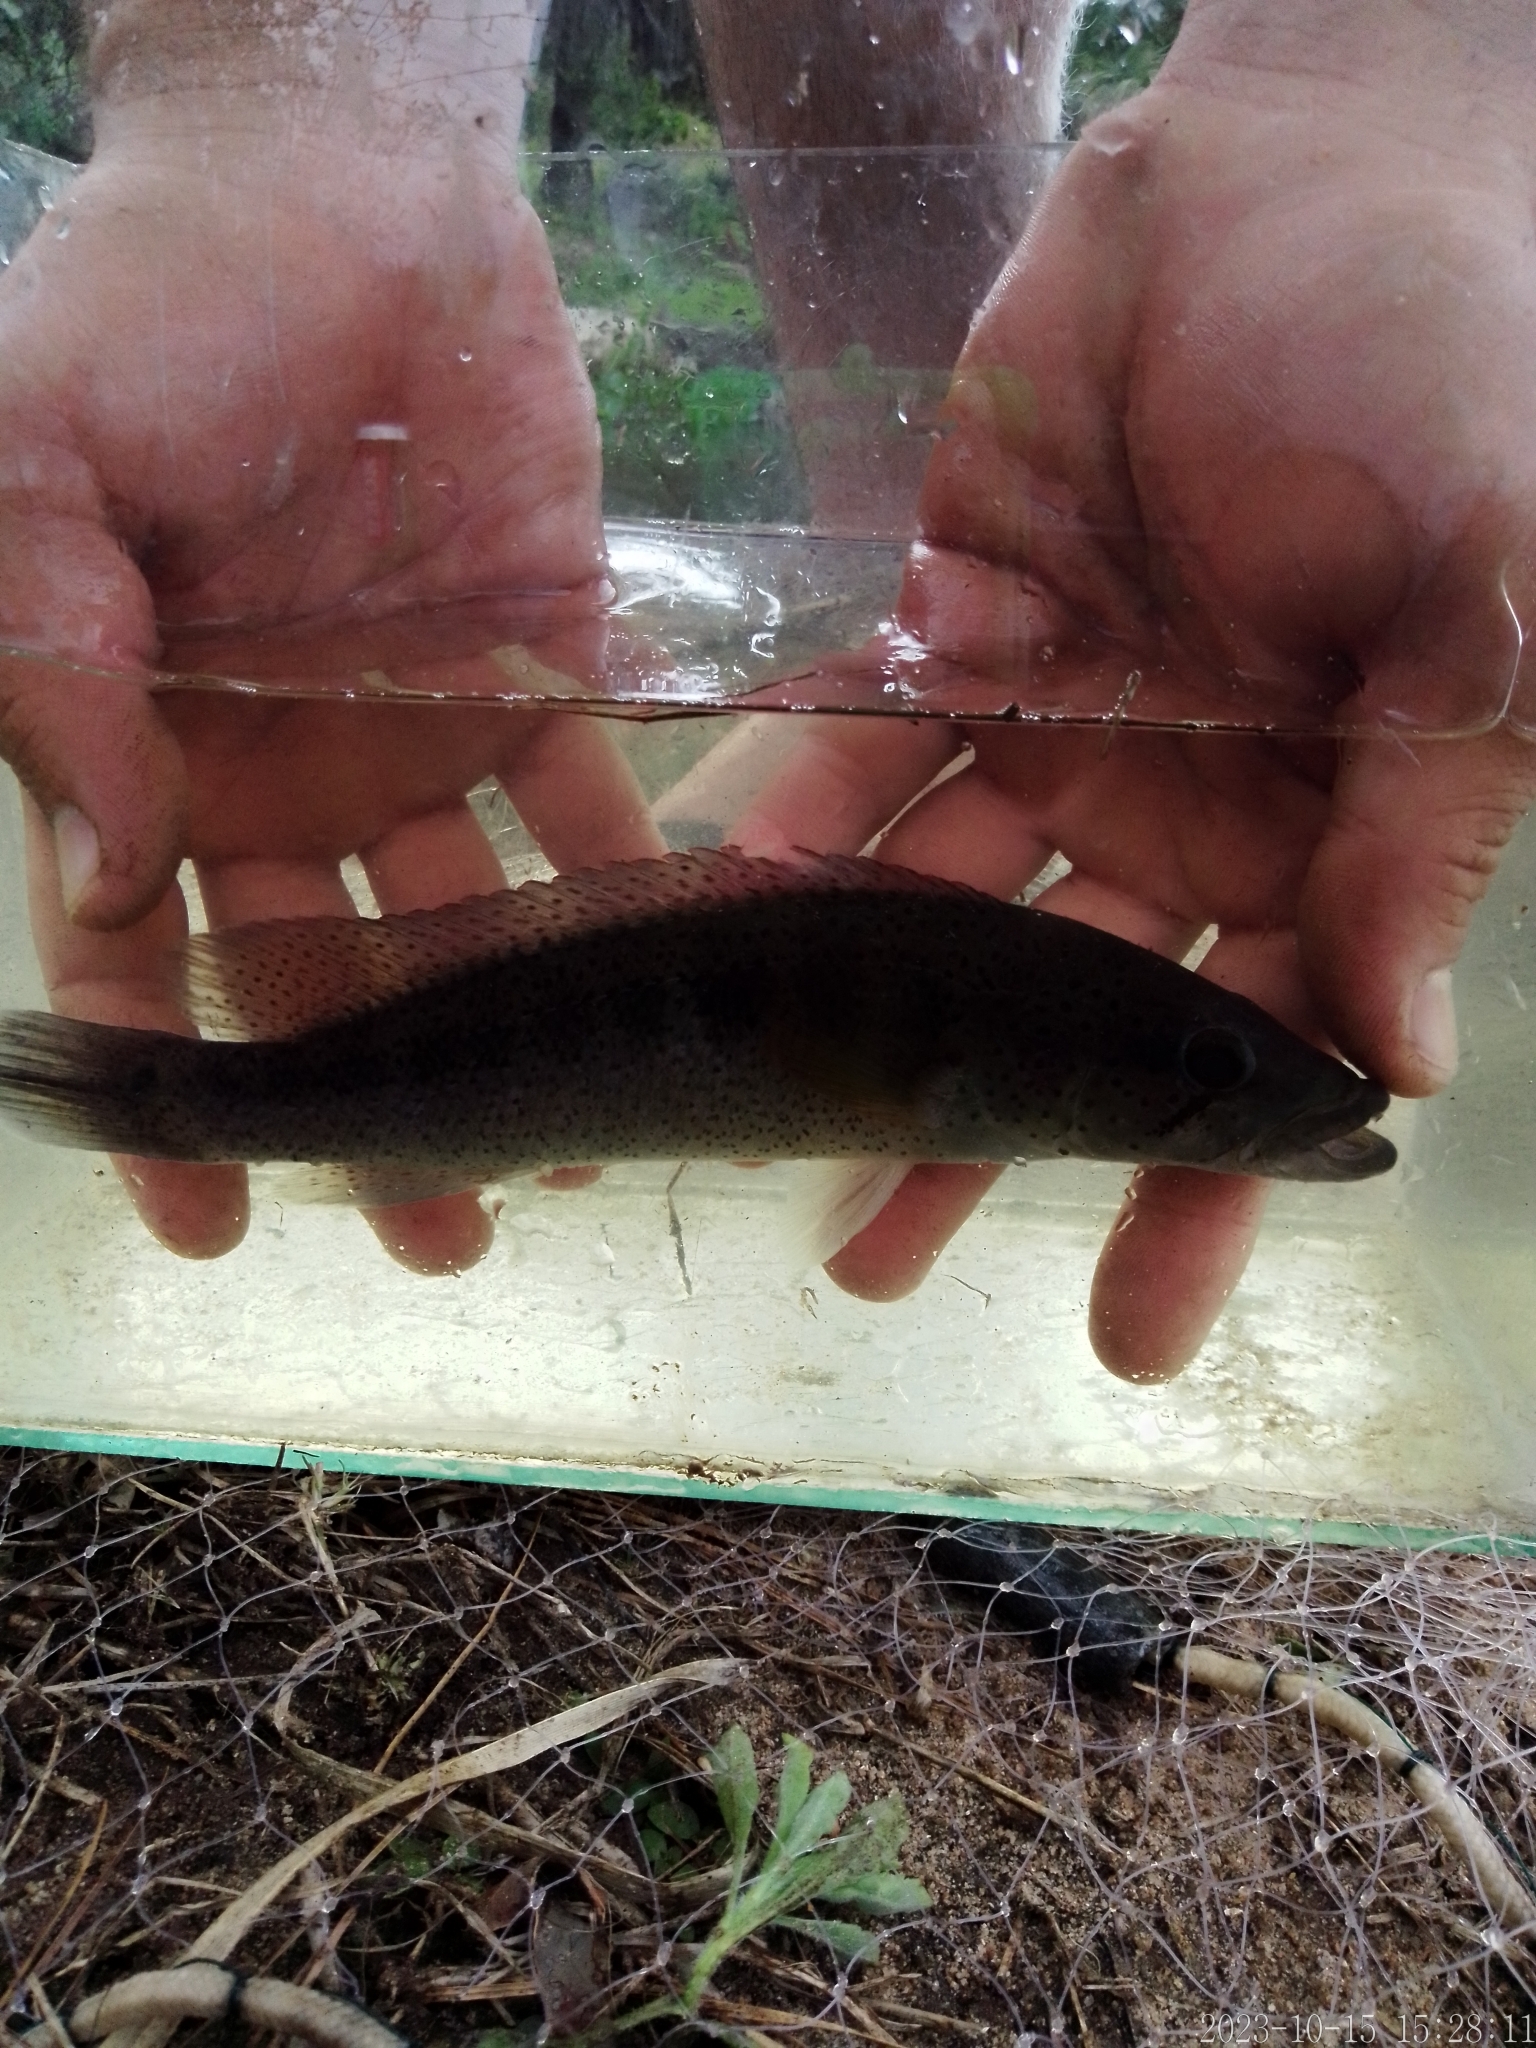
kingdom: Animalia
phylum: Chordata
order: Perciformes
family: Cichlidae
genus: Crenicichla
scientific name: Crenicichla punctata
